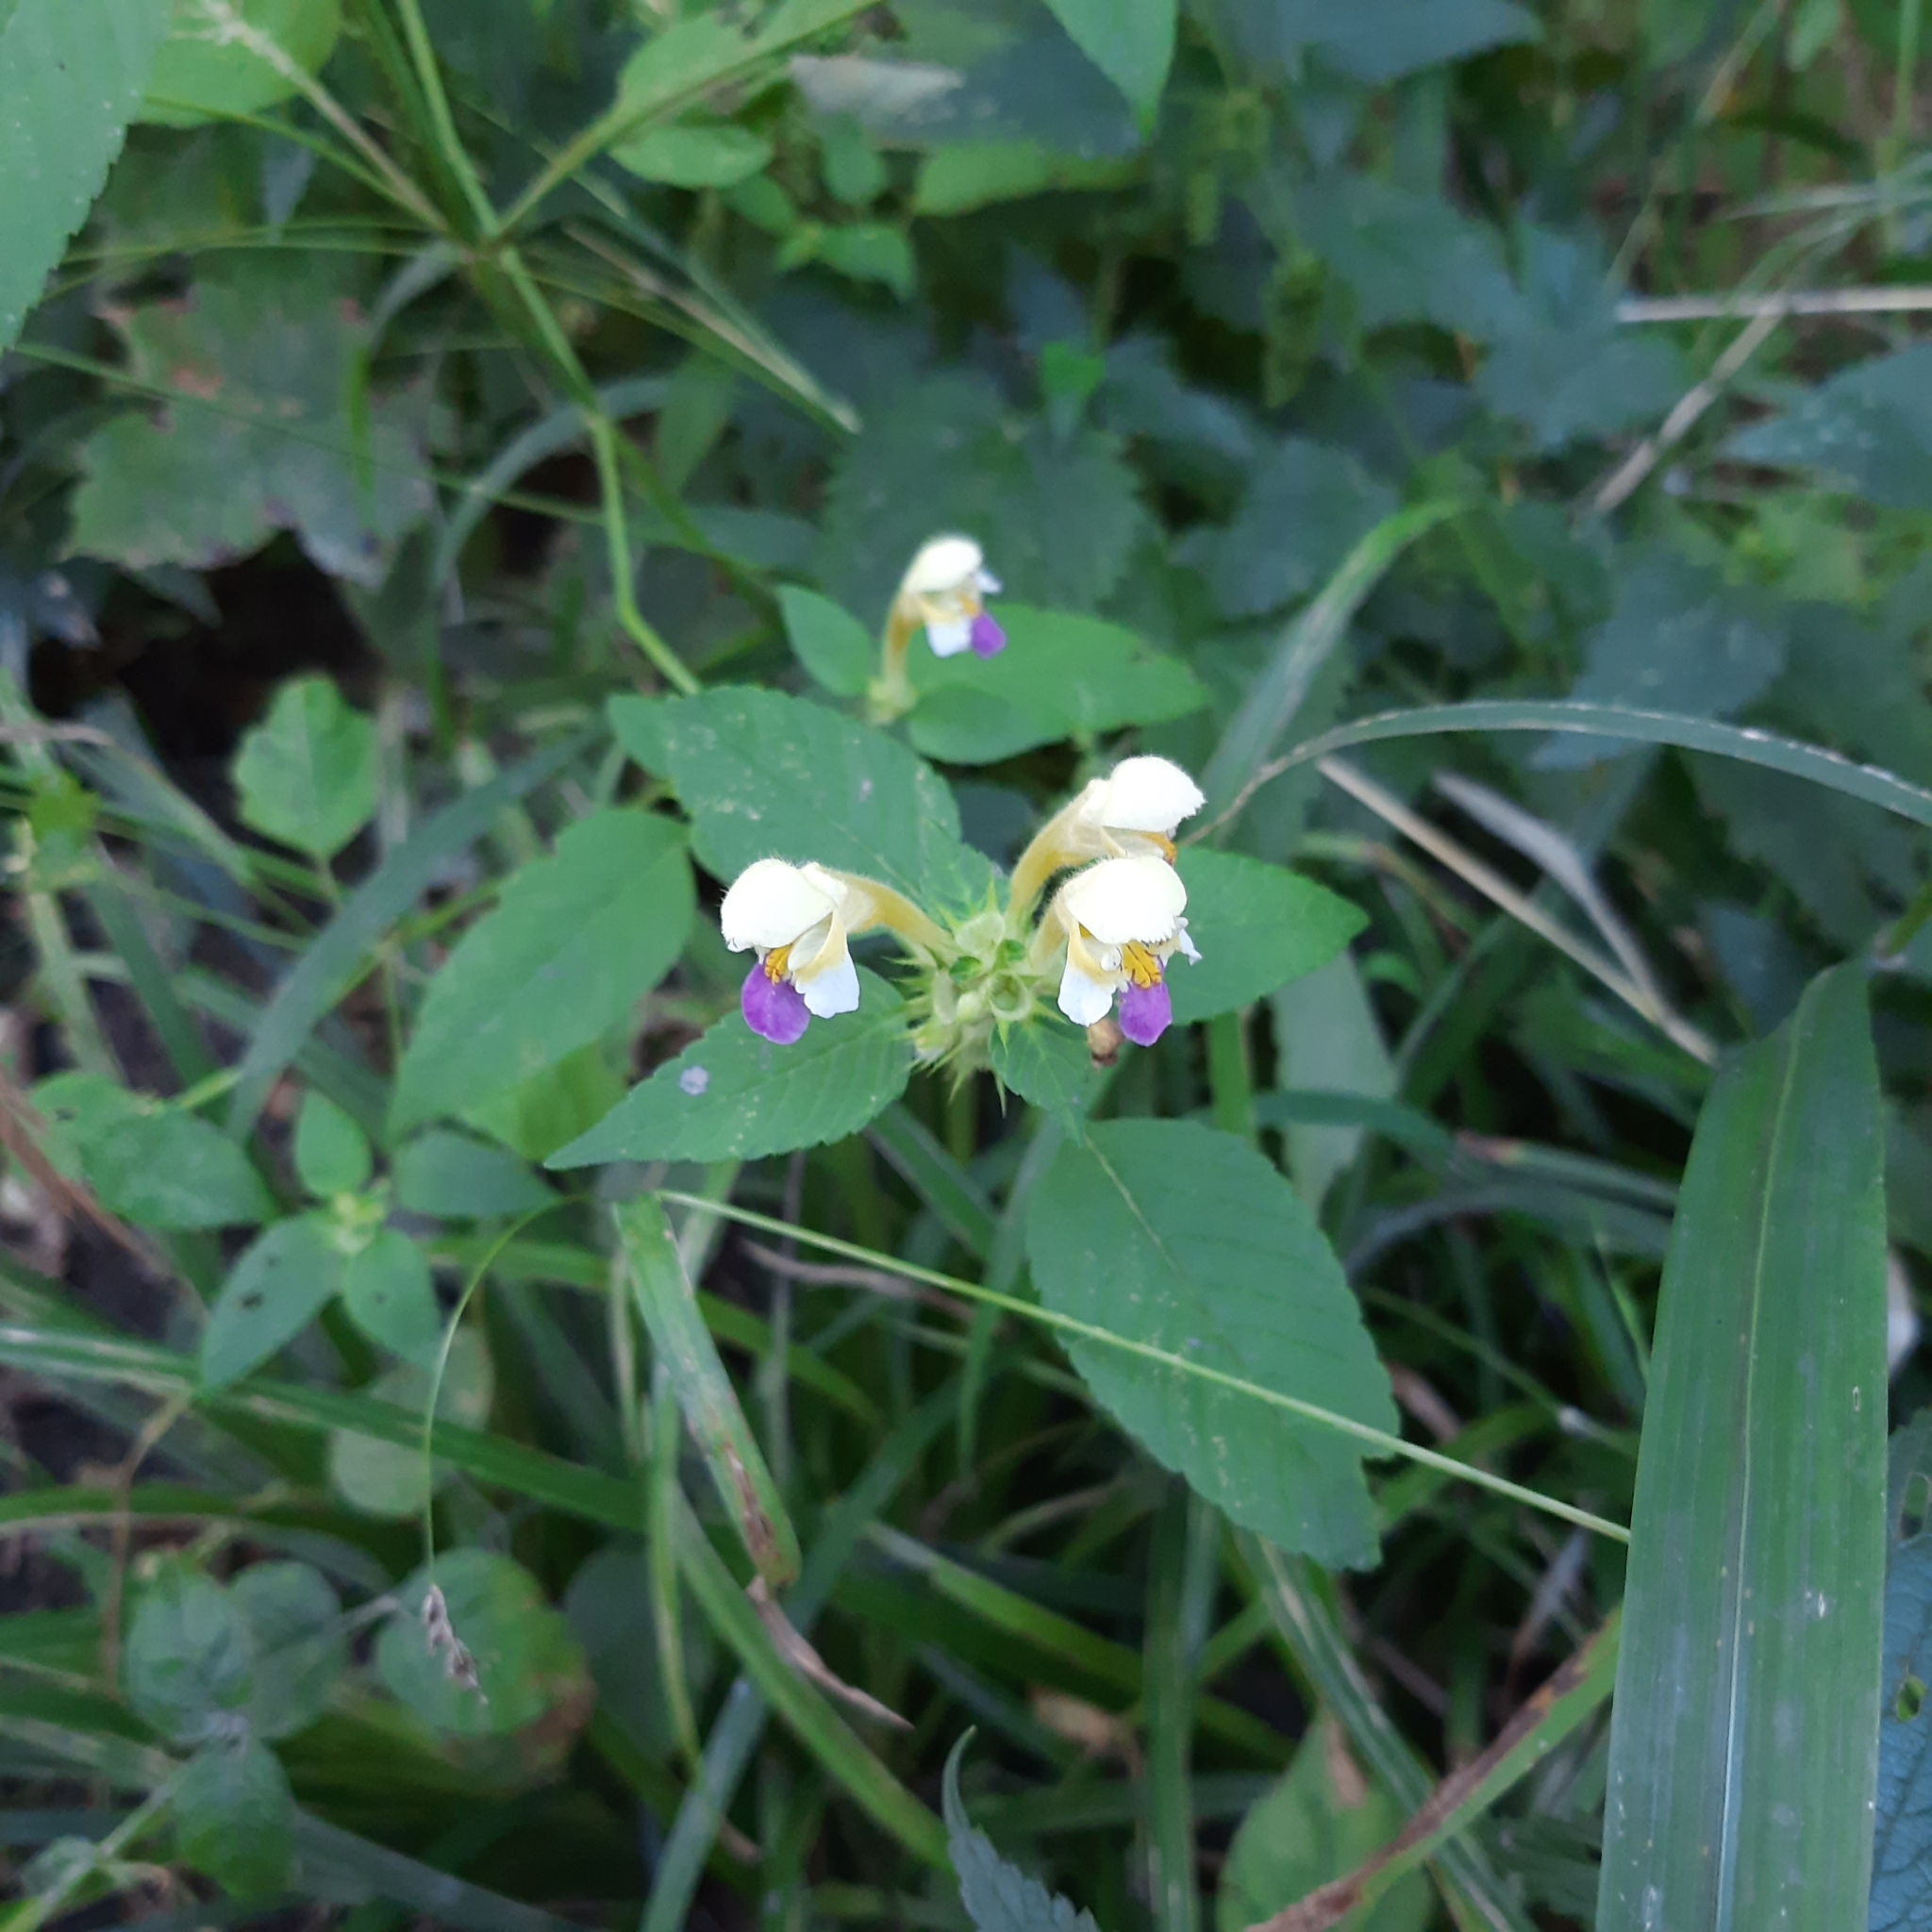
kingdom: Plantae
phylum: Tracheophyta
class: Magnoliopsida
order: Lamiales
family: Lamiaceae
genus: Galeopsis
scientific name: Galeopsis speciosa
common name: Large-flowered hemp-nettle
